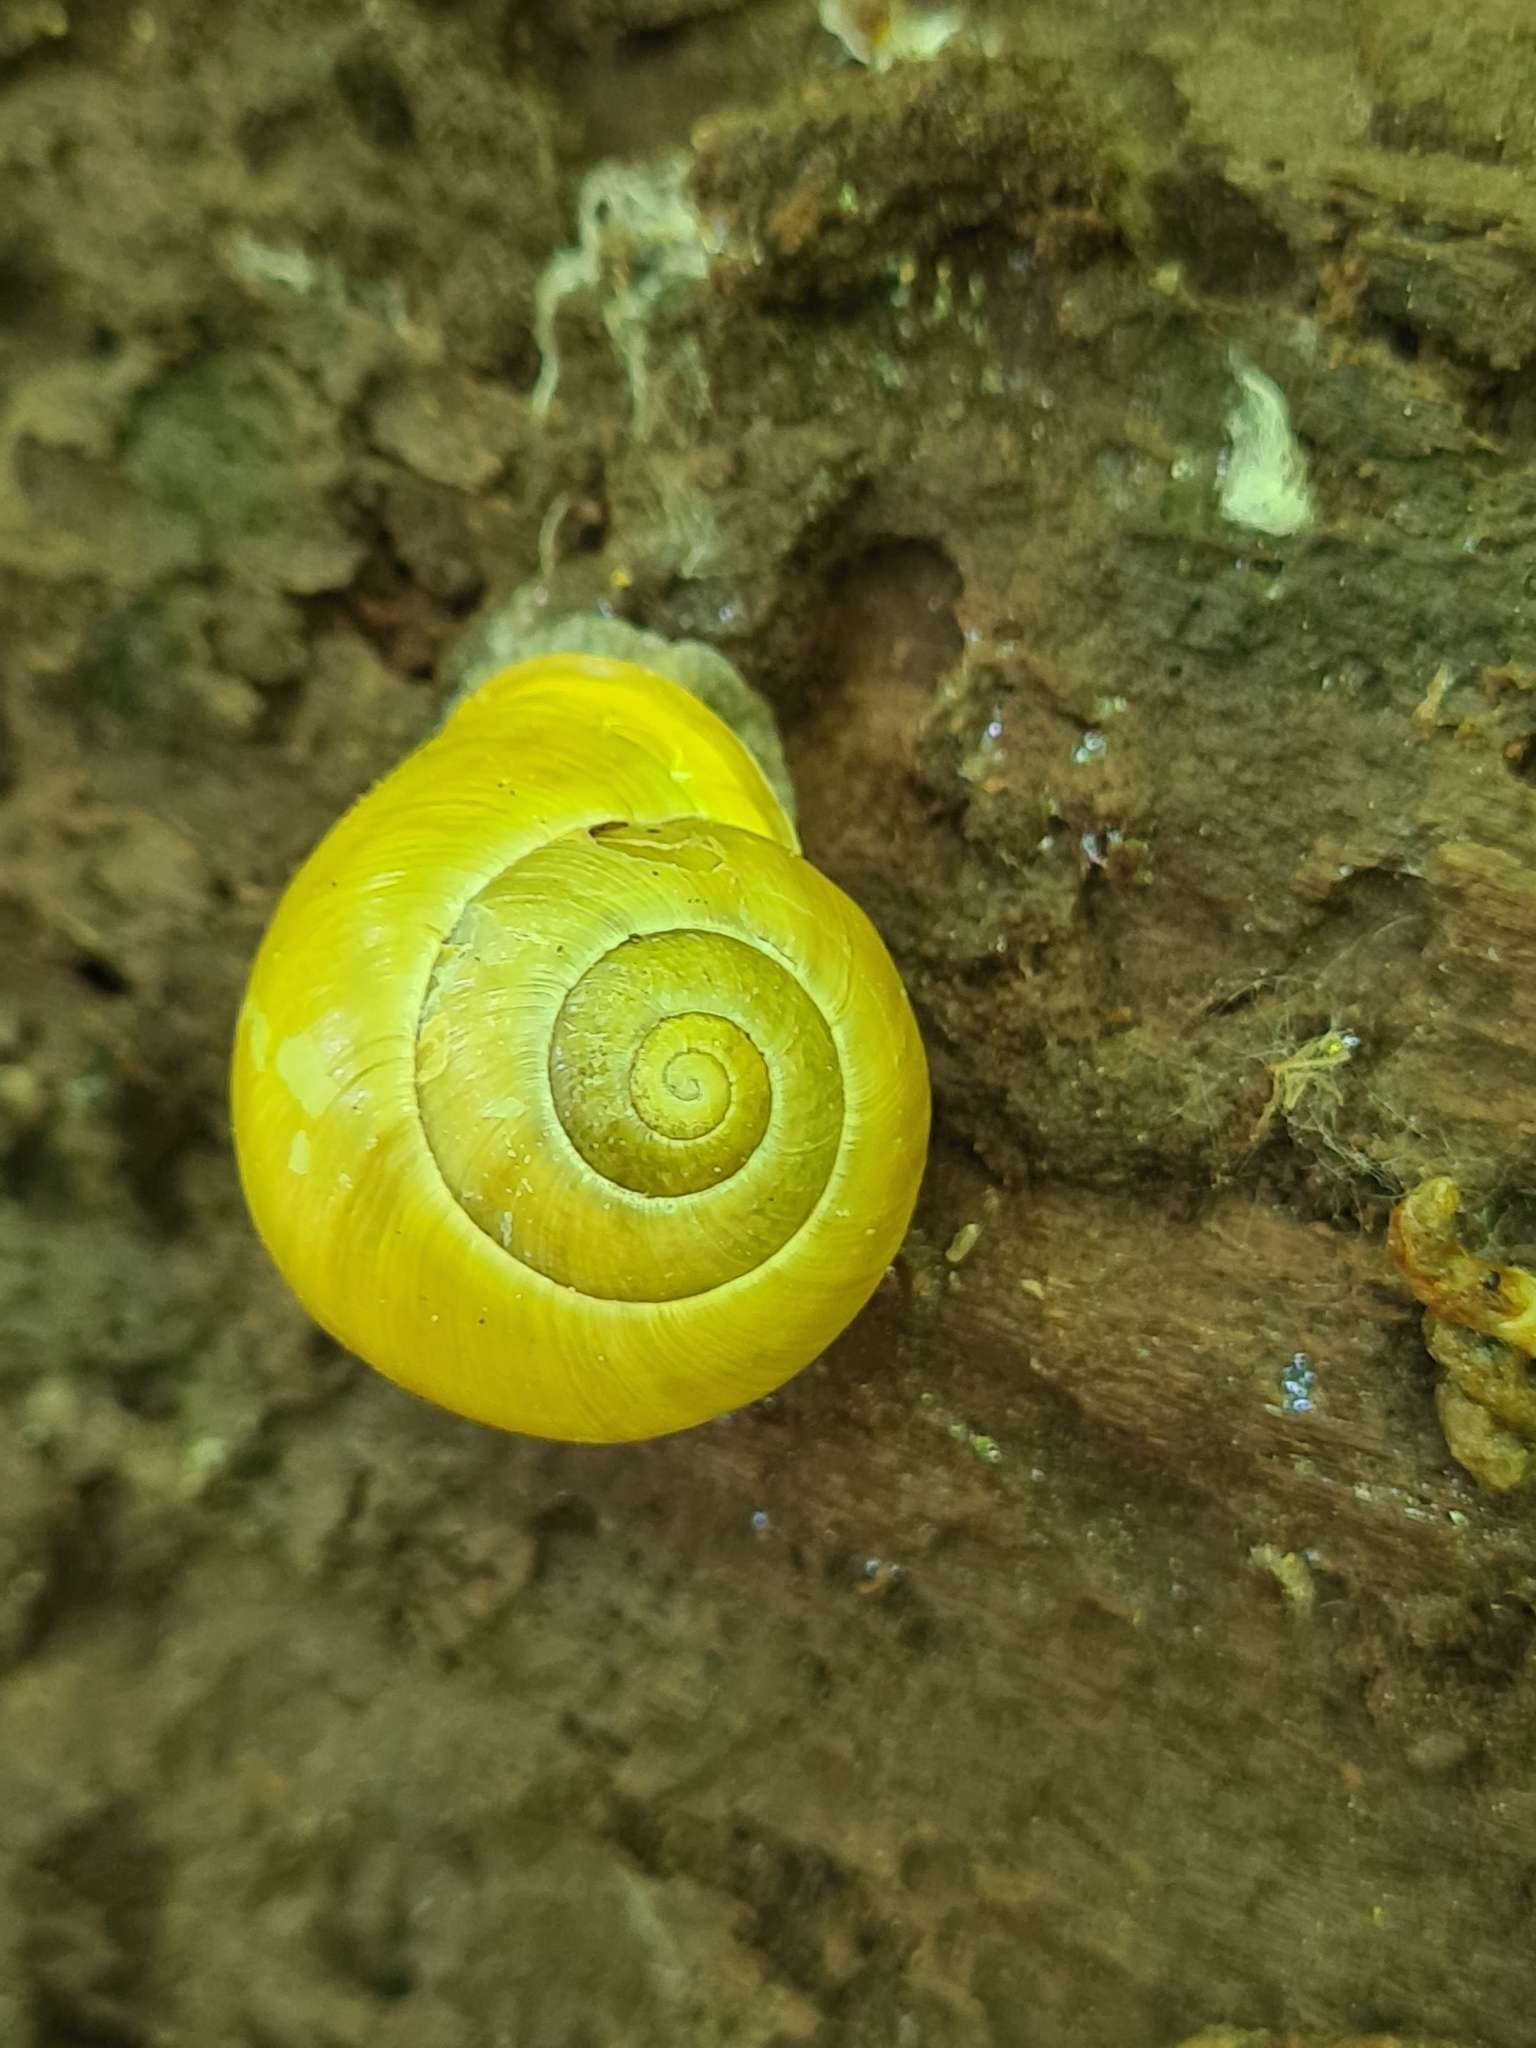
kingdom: Animalia
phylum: Mollusca
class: Gastropoda
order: Stylommatophora
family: Helicidae
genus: Cepaea
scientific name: Cepaea hortensis
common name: White-lip gardensnail
